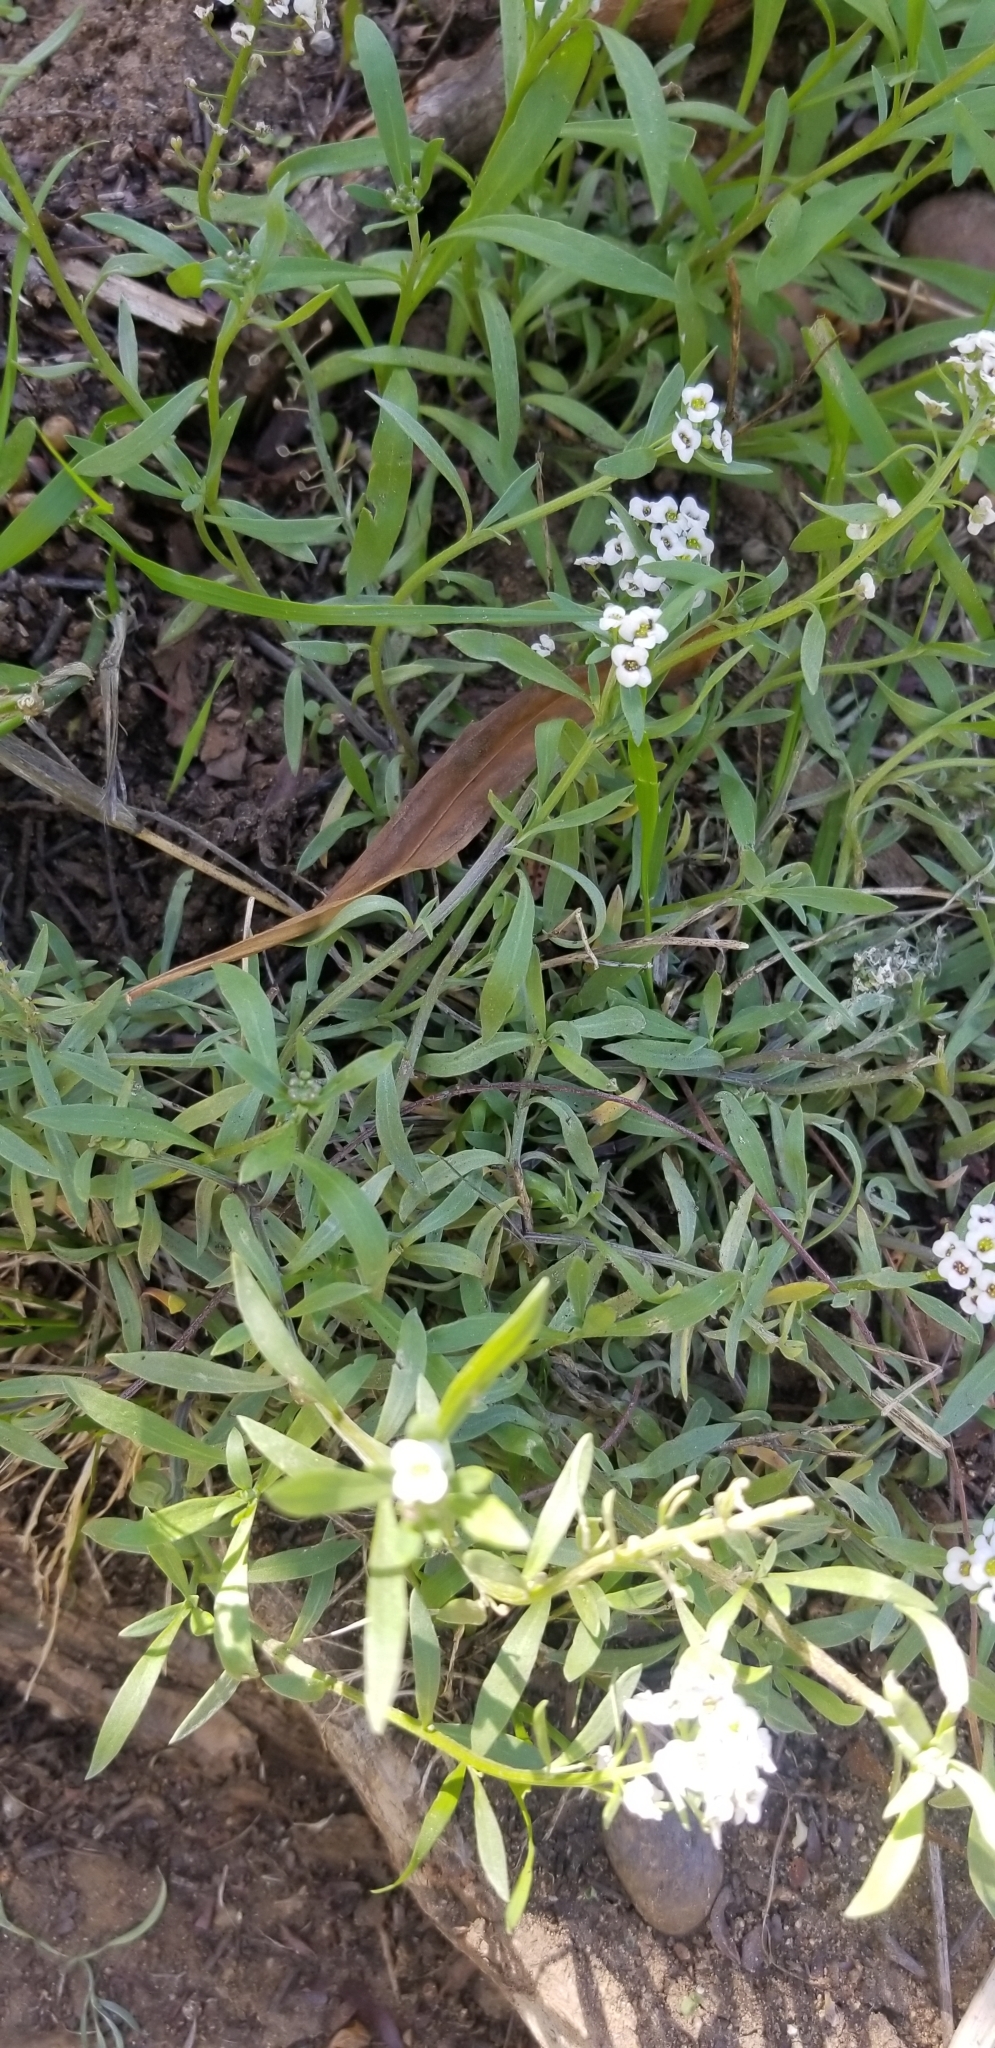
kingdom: Plantae
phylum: Tracheophyta
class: Magnoliopsida
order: Brassicales
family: Brassicaceae
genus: Lobularia
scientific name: Lobularia maritima
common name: Sweet alison
